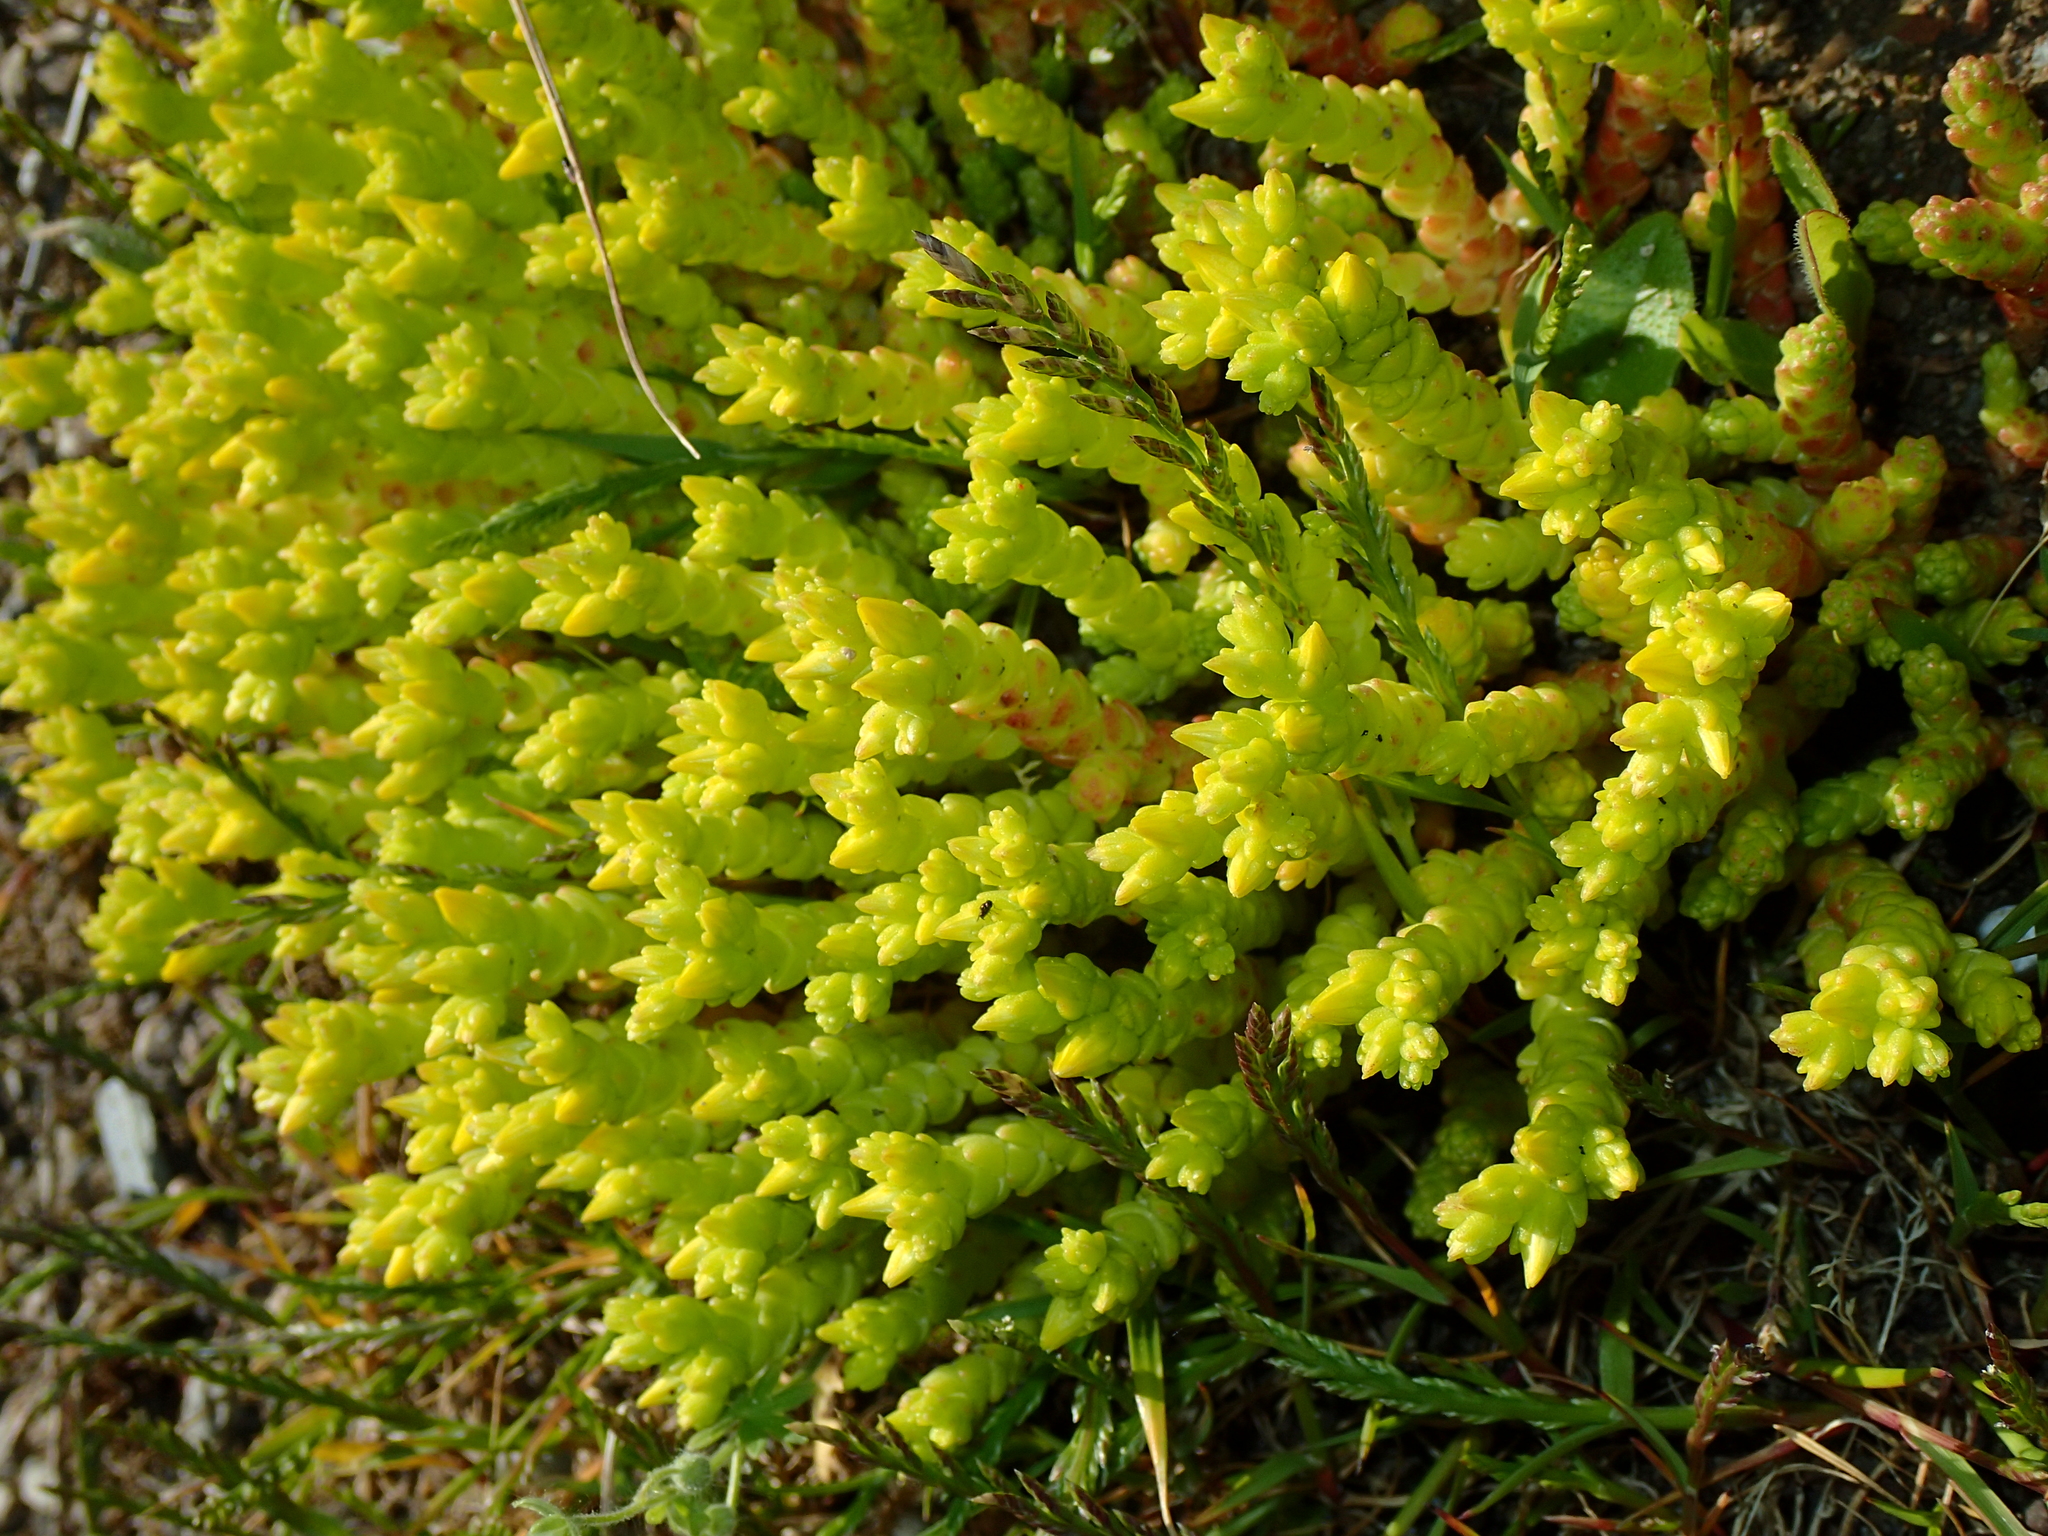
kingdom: Plantae
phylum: Tracheophyta
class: Magnoliopsida
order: Saxifragales
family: Crassulaceae
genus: Sedum
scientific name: Sedum acre
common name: Biting stonecrop
